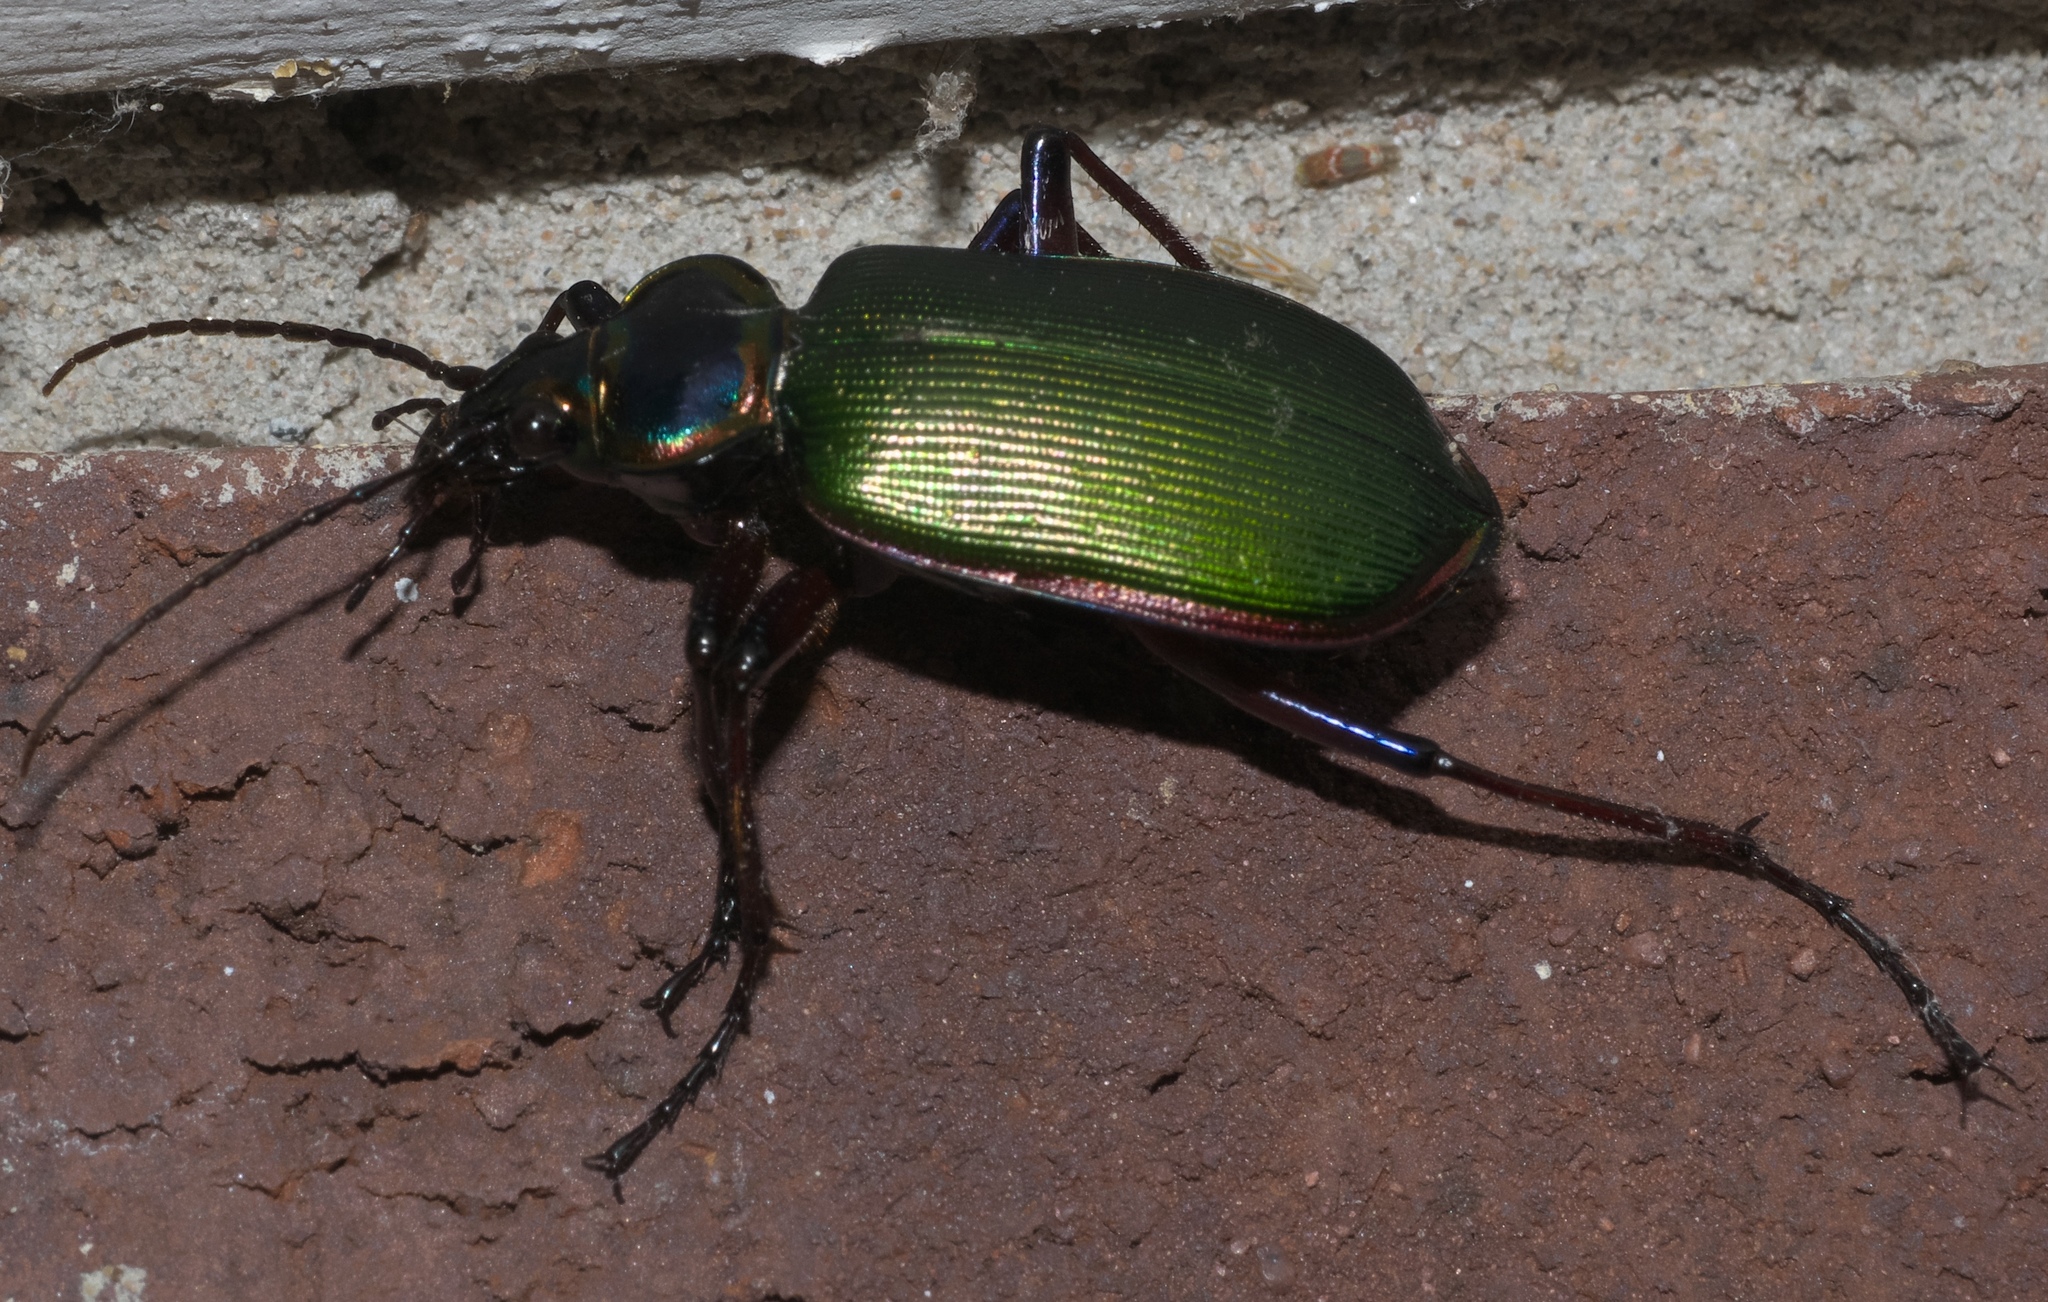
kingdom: Animalia
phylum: Arthropoda
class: Insecta
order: Coleoptera
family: Carabidae
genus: Calosoma
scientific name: Calosoma scrutator
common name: Fiery searcher beetle
